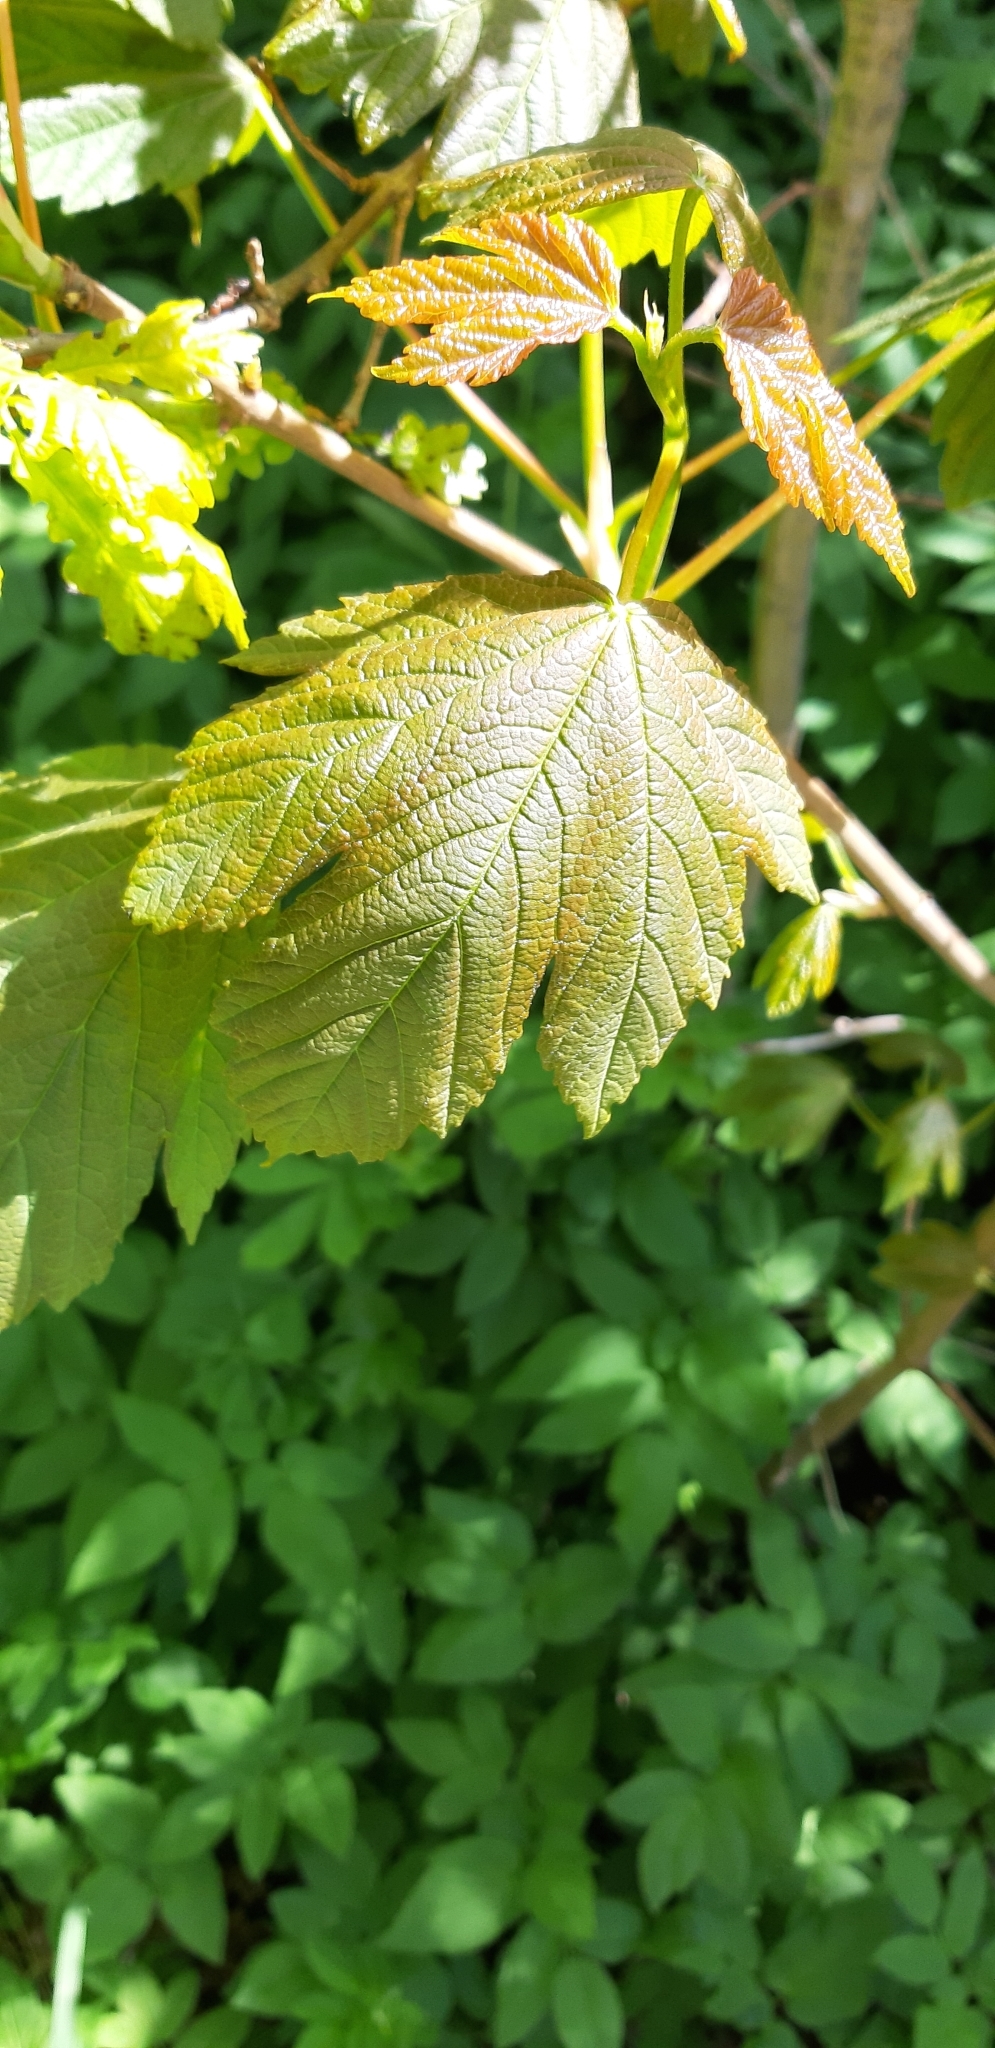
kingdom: Plantae
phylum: Tracheophyta
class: Magnoliopsida
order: Sapindales
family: Sapindaceae
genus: Acer
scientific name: Acer pseudoplatanus
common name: Sycamore
